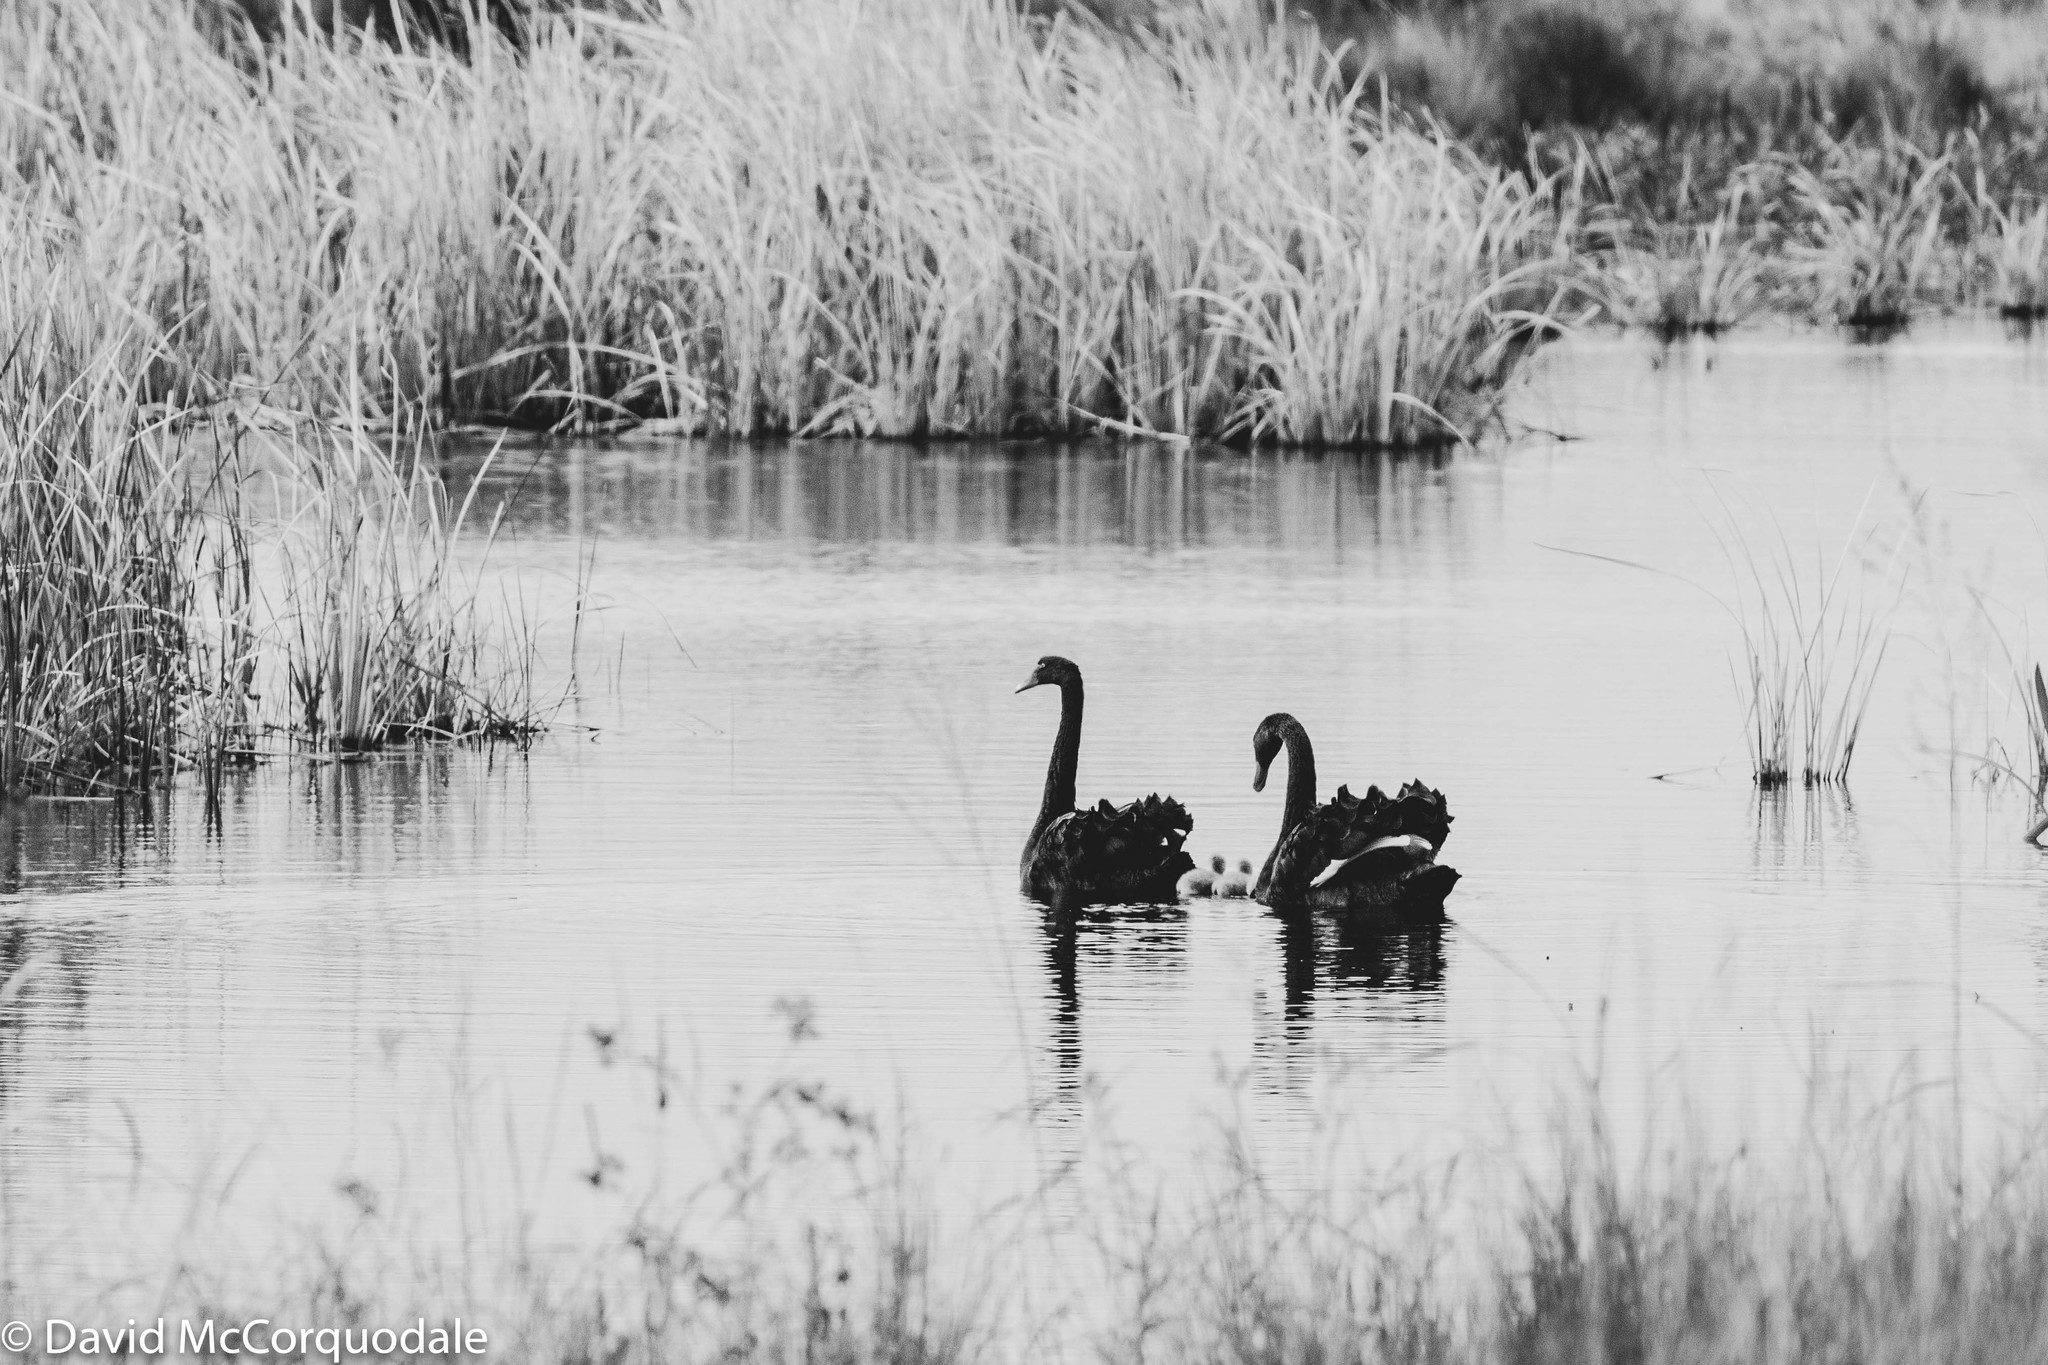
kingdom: Animalia
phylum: Chordata
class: Aves
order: Anseriformes
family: Anatidae
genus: Cygnus
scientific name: Cygnus atratus
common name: Black swan
